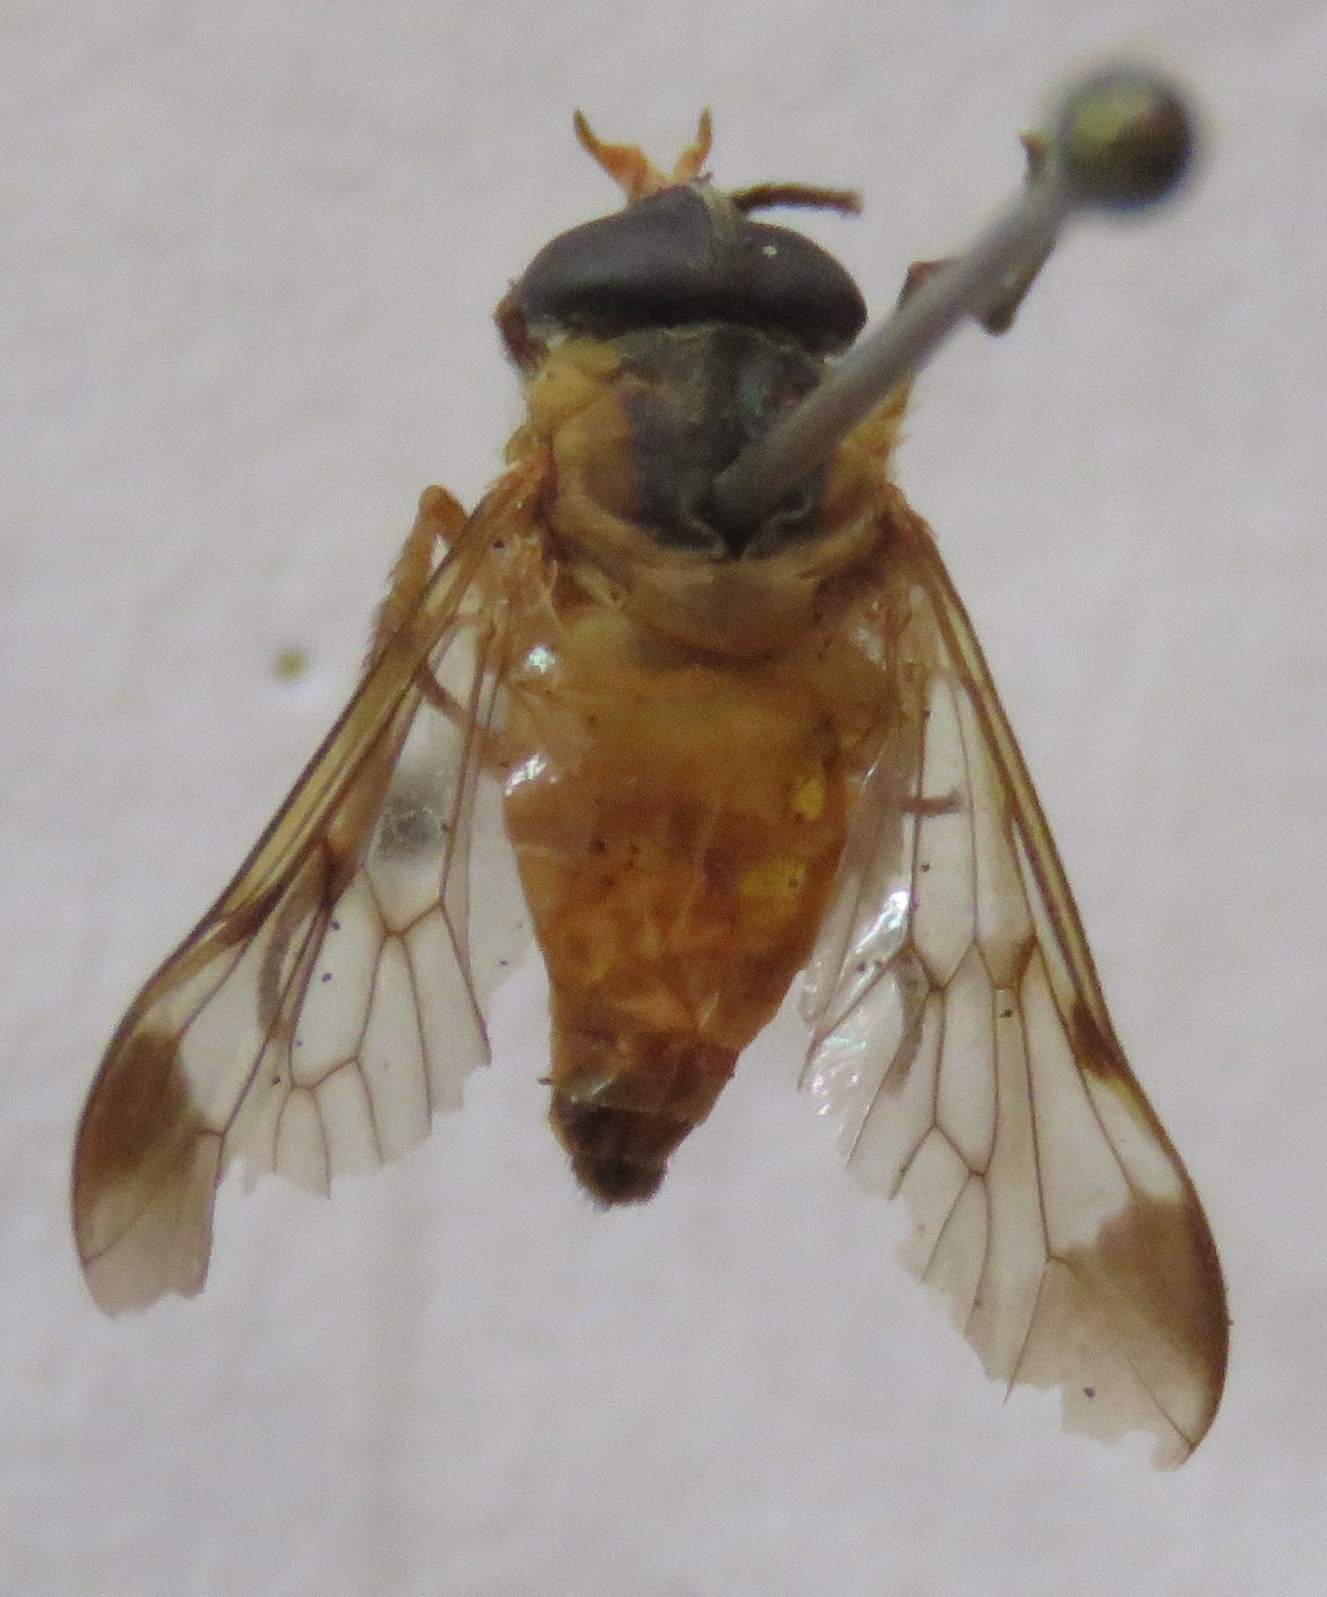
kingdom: Animalia
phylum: Arthropoda
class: Insecta
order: Diptera
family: Tabanidae
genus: Diachlorus
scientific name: Diachlorus ferrugatus
